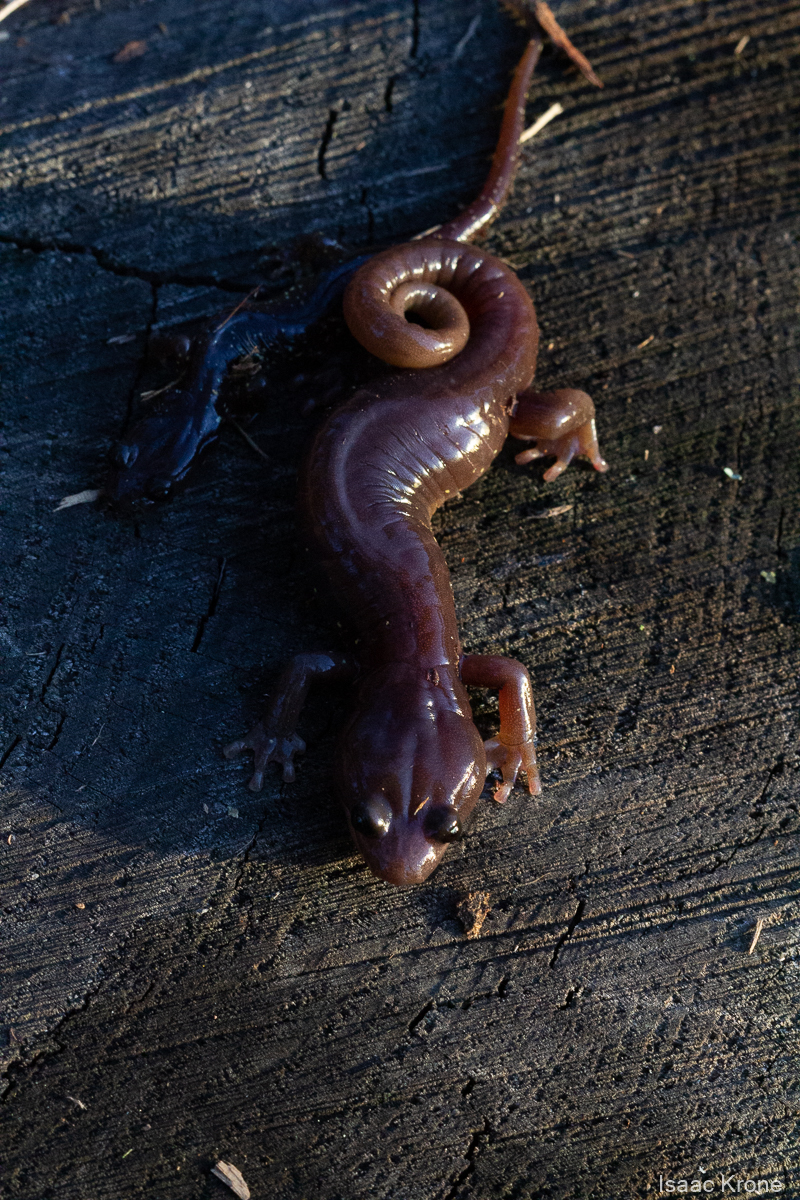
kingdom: Animalia
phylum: Chordata
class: Amphibia
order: Caudata
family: Plethodontidae
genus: Aneides
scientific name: Aneides lugubris
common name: Arboreal salamander
